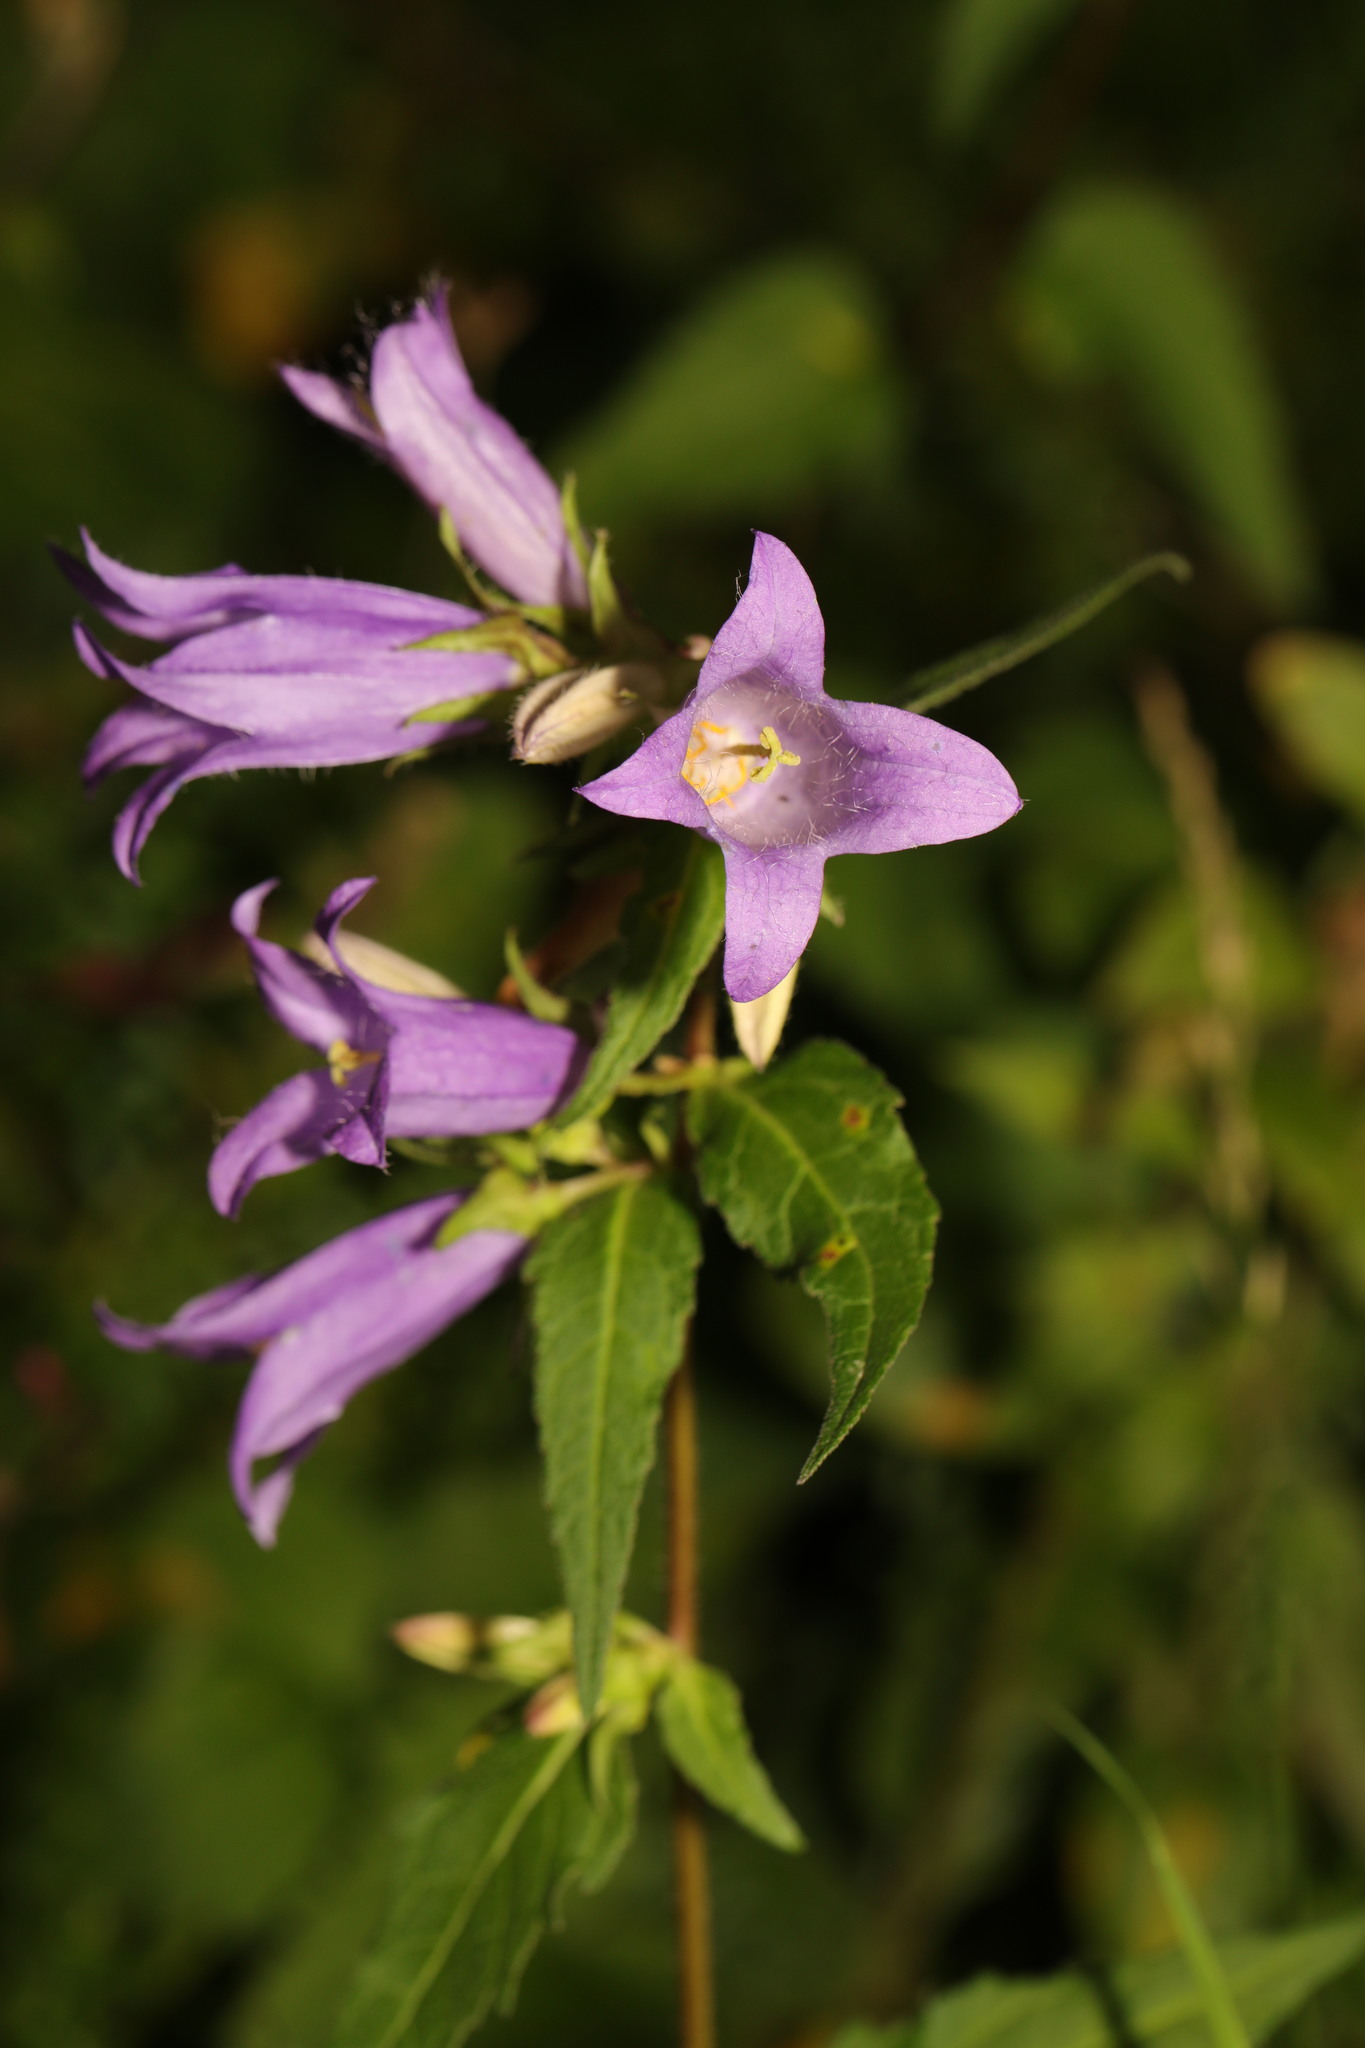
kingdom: Plantae
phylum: Tracheophyta
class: Magnoliopsida
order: Asterales
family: Campanulaceae
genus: Campanula
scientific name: Campanula trachelium
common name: Nettle-leaved bellflower
